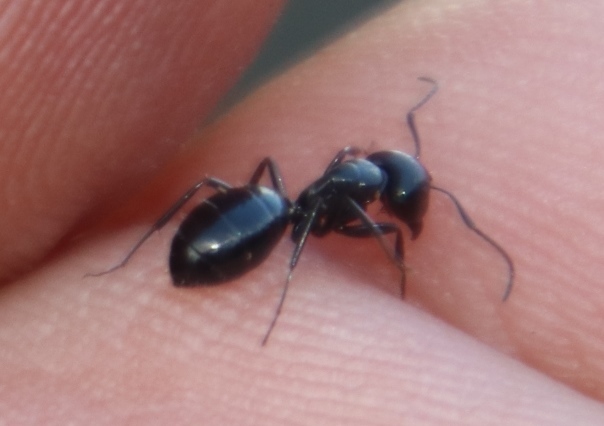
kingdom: Animalia
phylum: Arthropoda
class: Insecta
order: Hymenoptera
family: Formicidae
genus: Camponotus
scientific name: Camponotus werthi
